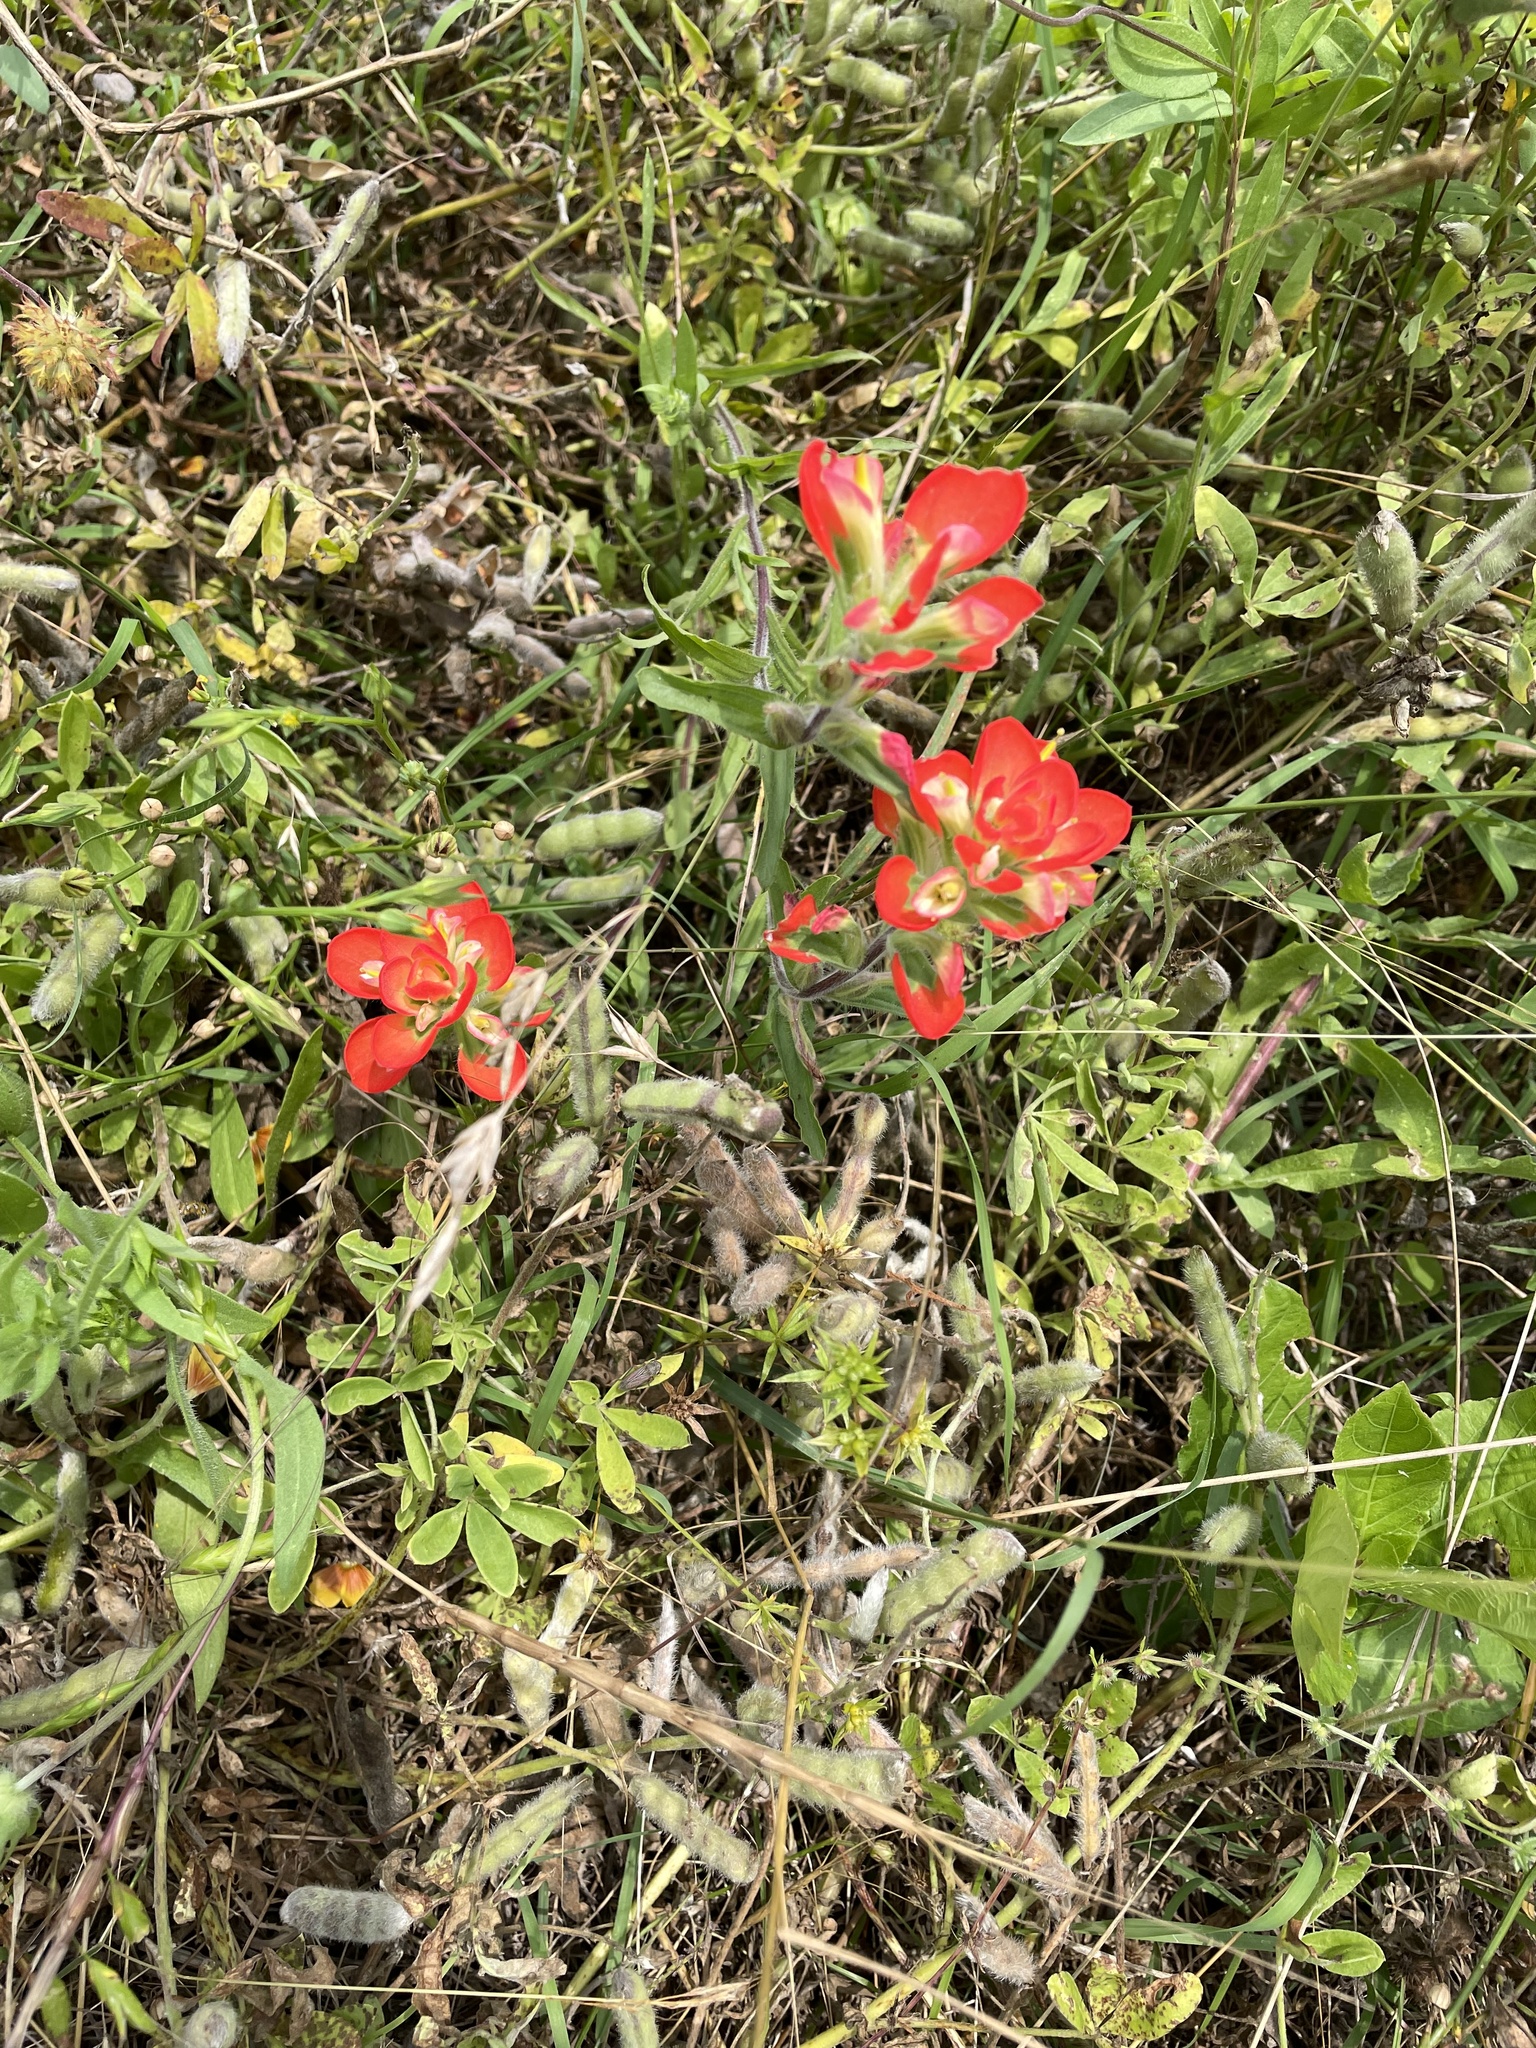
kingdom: Plantae
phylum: Tracheophyta
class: Magnoliopsida
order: Lamiales
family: Orobanchaceae
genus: Castilleja
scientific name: Castilleja indivisa
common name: Texas paintbrush
